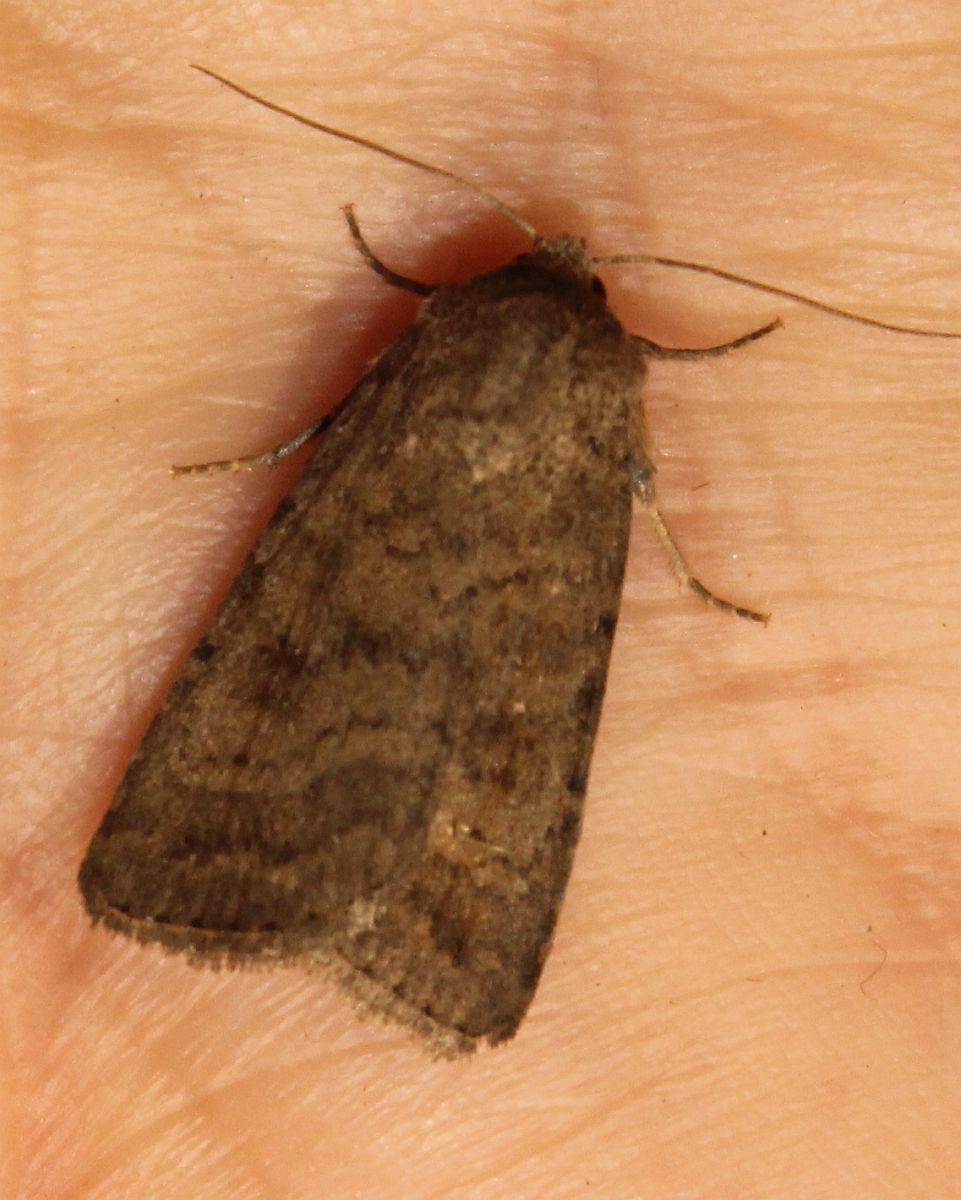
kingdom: Animalia
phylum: Arthropoda
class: Insecta
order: Lepidoptera
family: Noctuidae
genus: Caradrina
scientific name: Caradrina morpheus
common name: Mottled rustic
